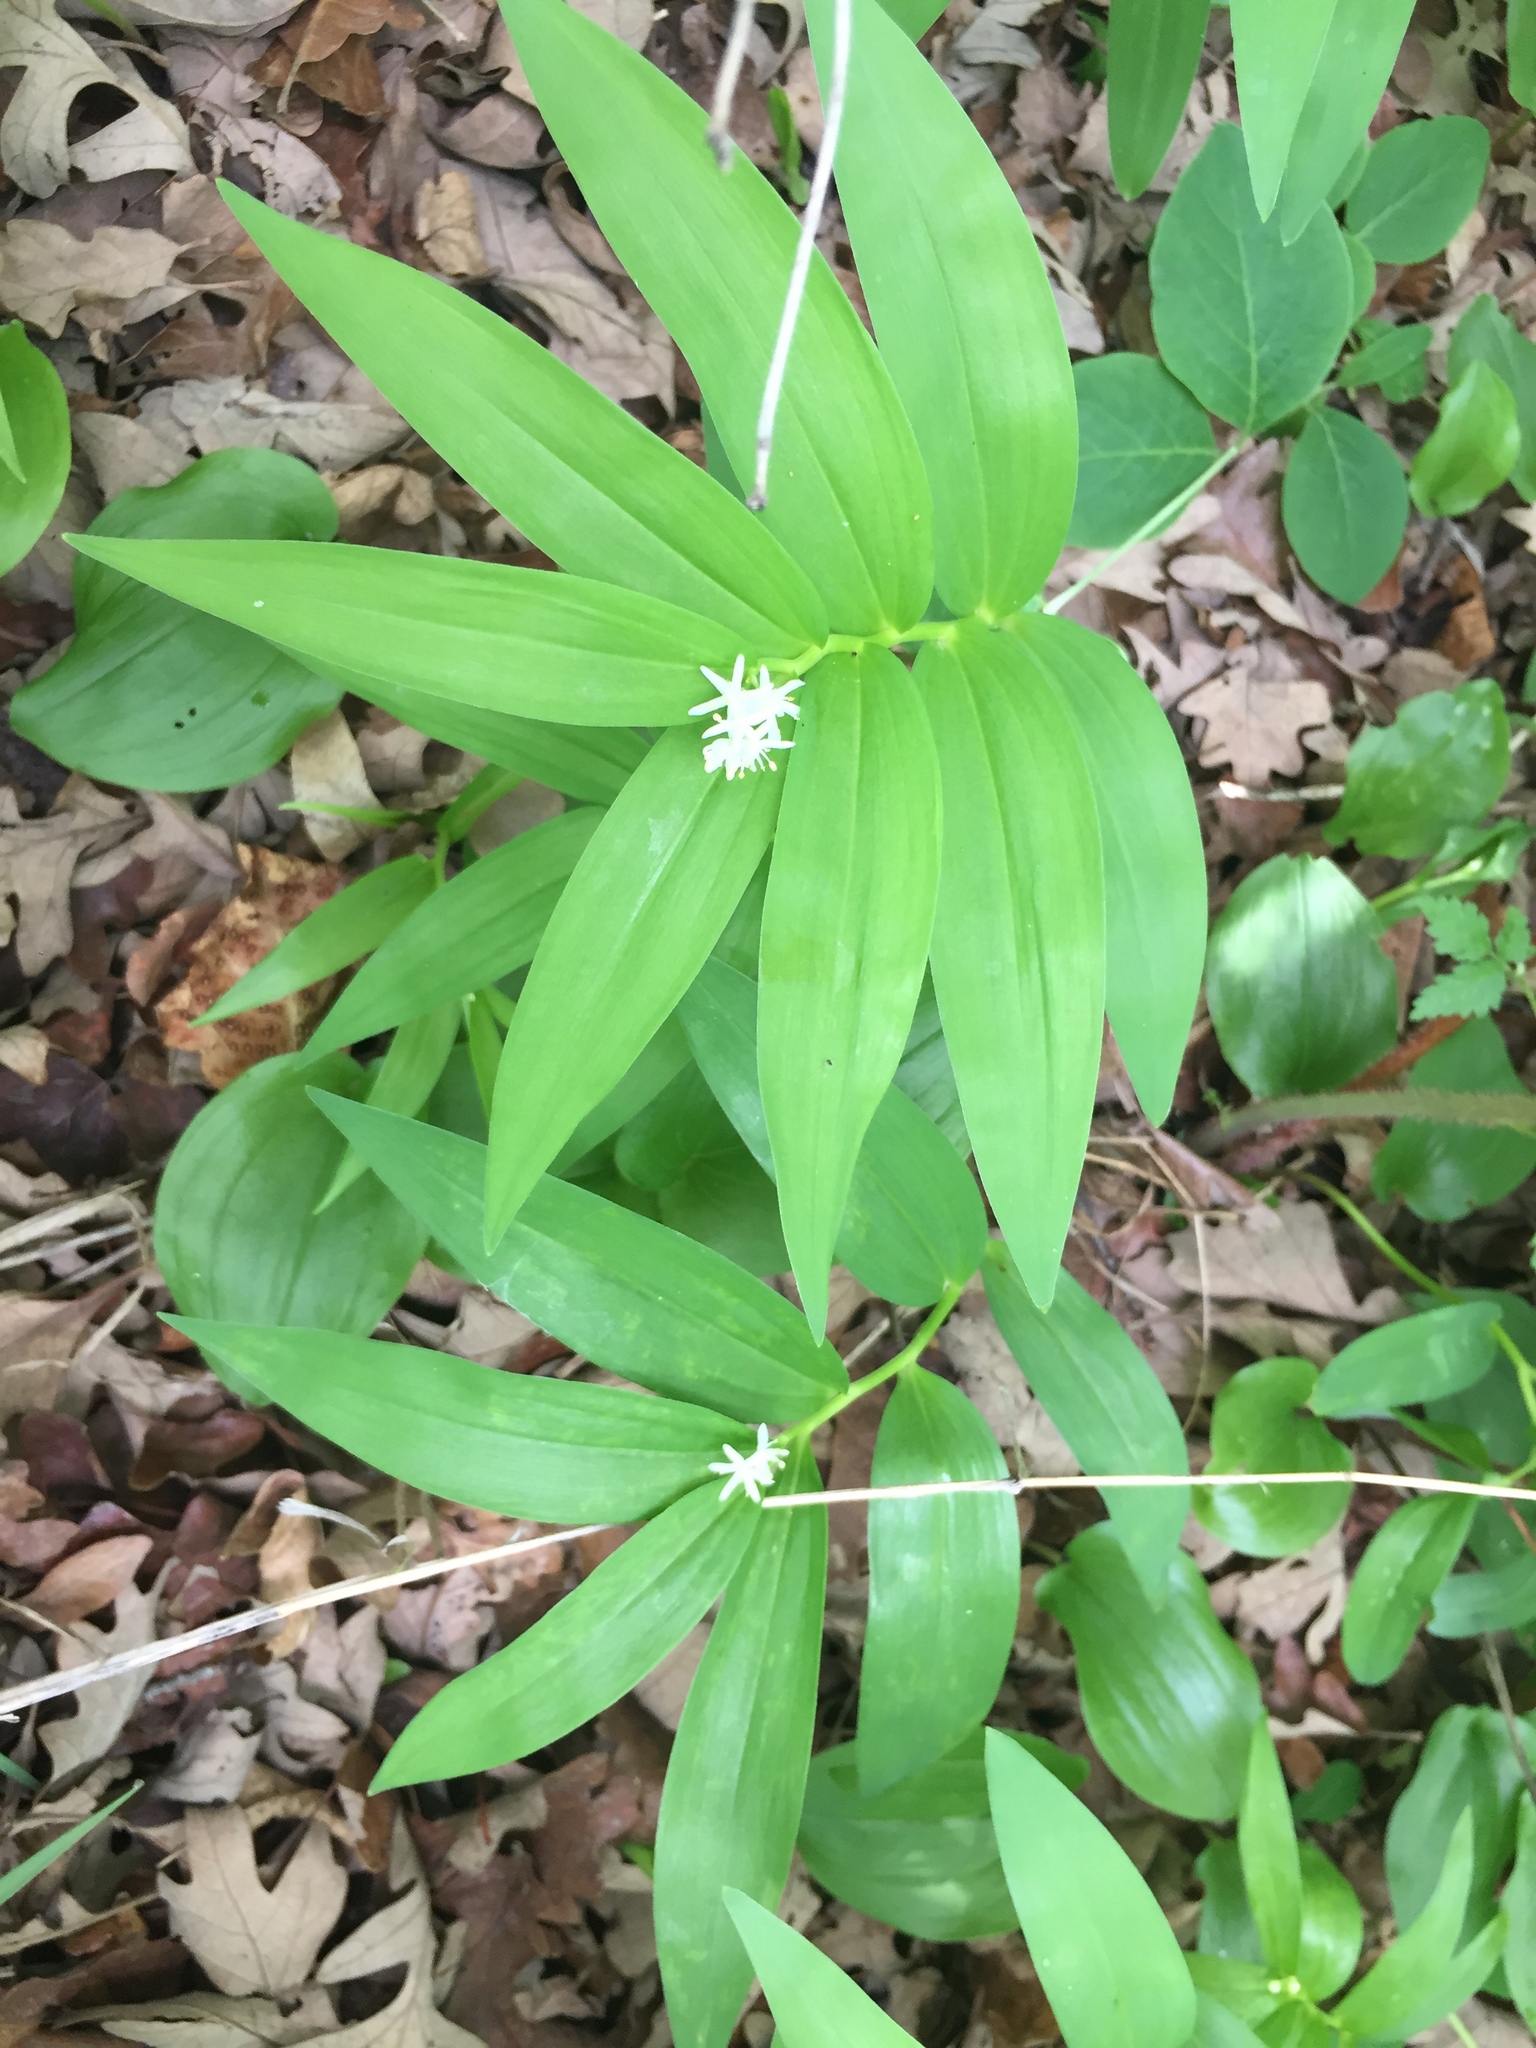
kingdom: Plantae
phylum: Tracheophyta
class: Liliopsida
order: Asparagales
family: Asparagaceae
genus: Maianthemum
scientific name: Maianthemum stellatum
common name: Little false solomon's seal
